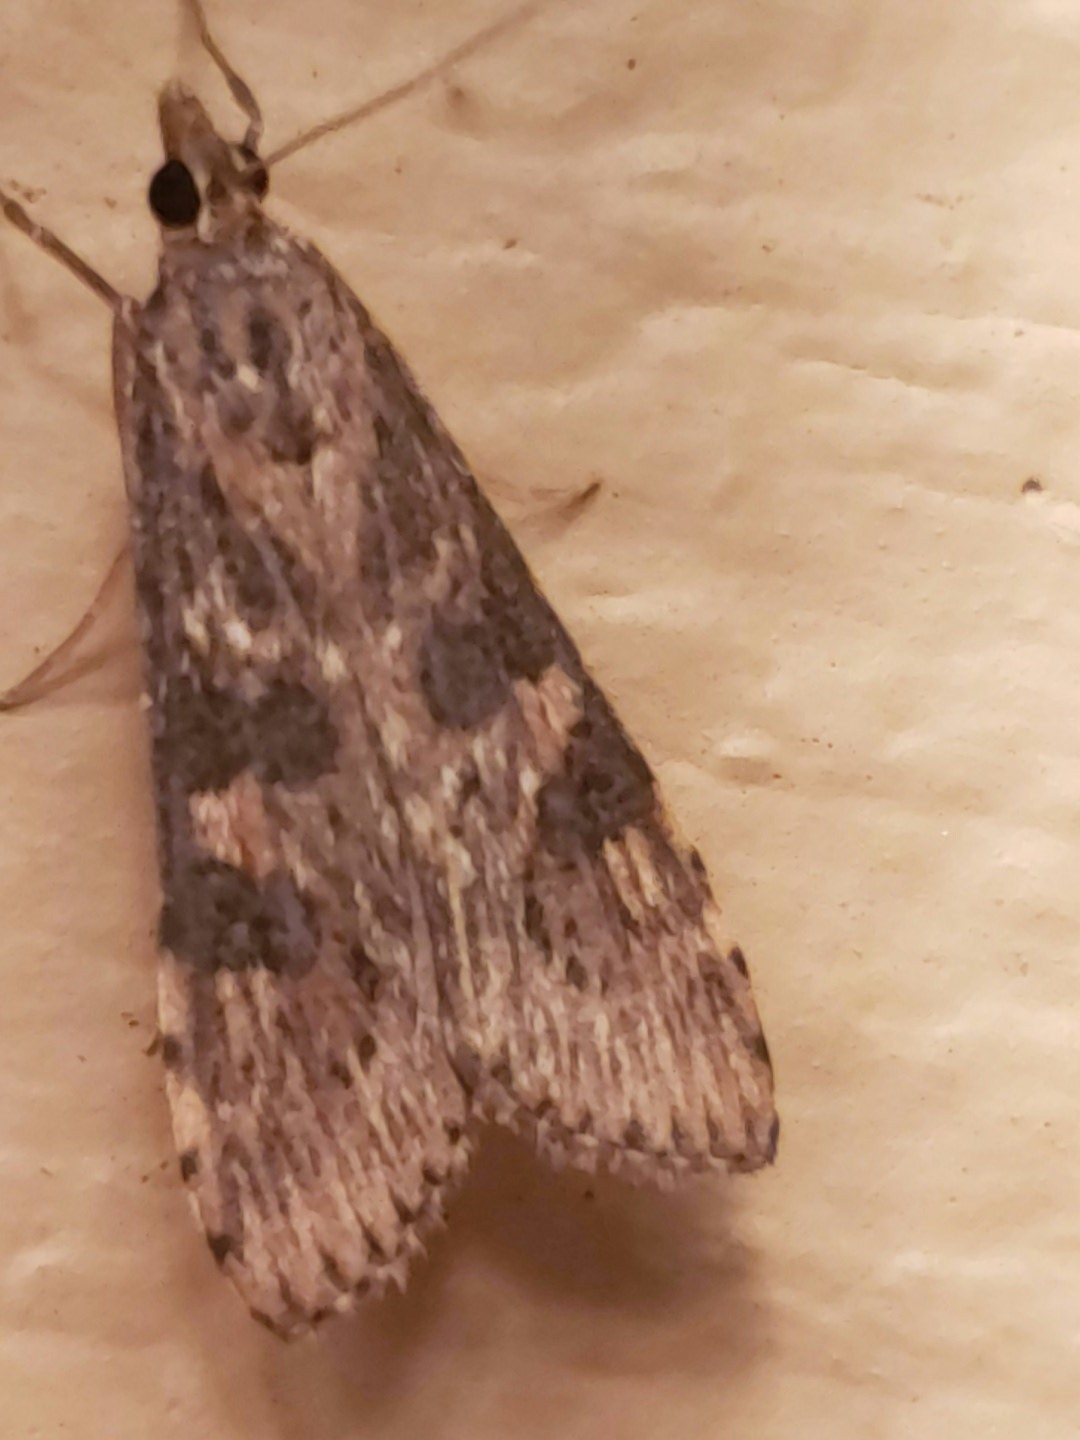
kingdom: Animalia
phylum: Arthropoda
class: Insecta
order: Lepidoptera
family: Crambidae
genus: Nomophila
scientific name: Nomophila nearctica
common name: American rush veneer
